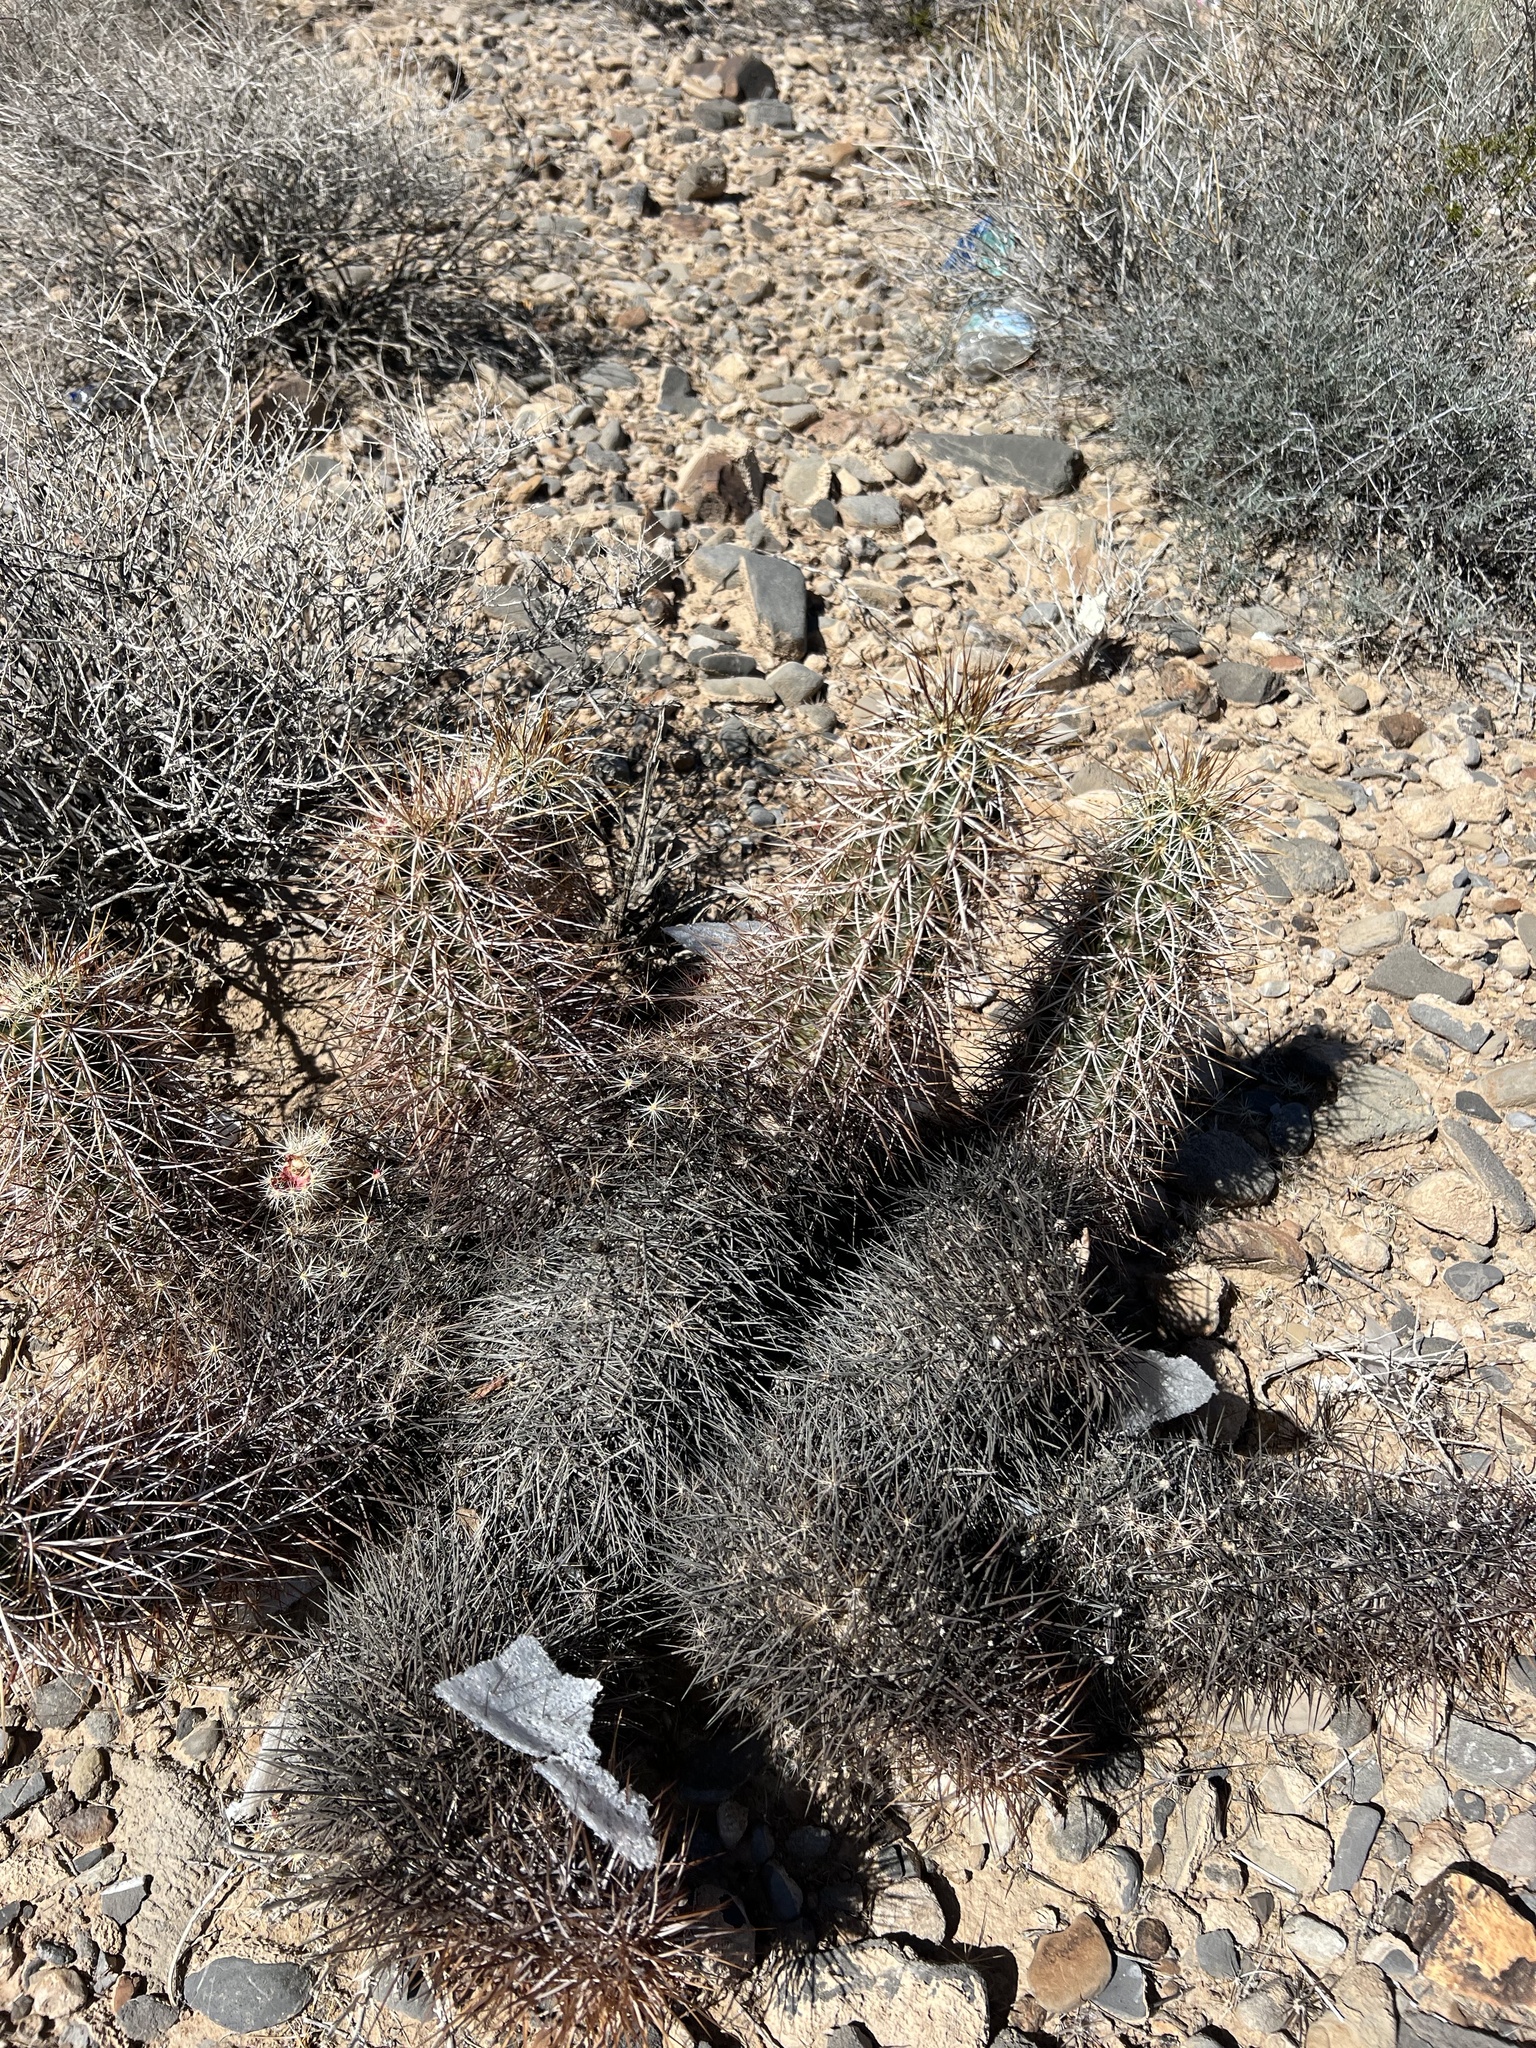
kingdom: Plantae
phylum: Tracheophyta
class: Magnoliopsida
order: Caryophyllales
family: Cactaceae
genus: Echinocereus
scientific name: Echinocereus engelmannii
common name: Engelmann's hedgehog cactus
